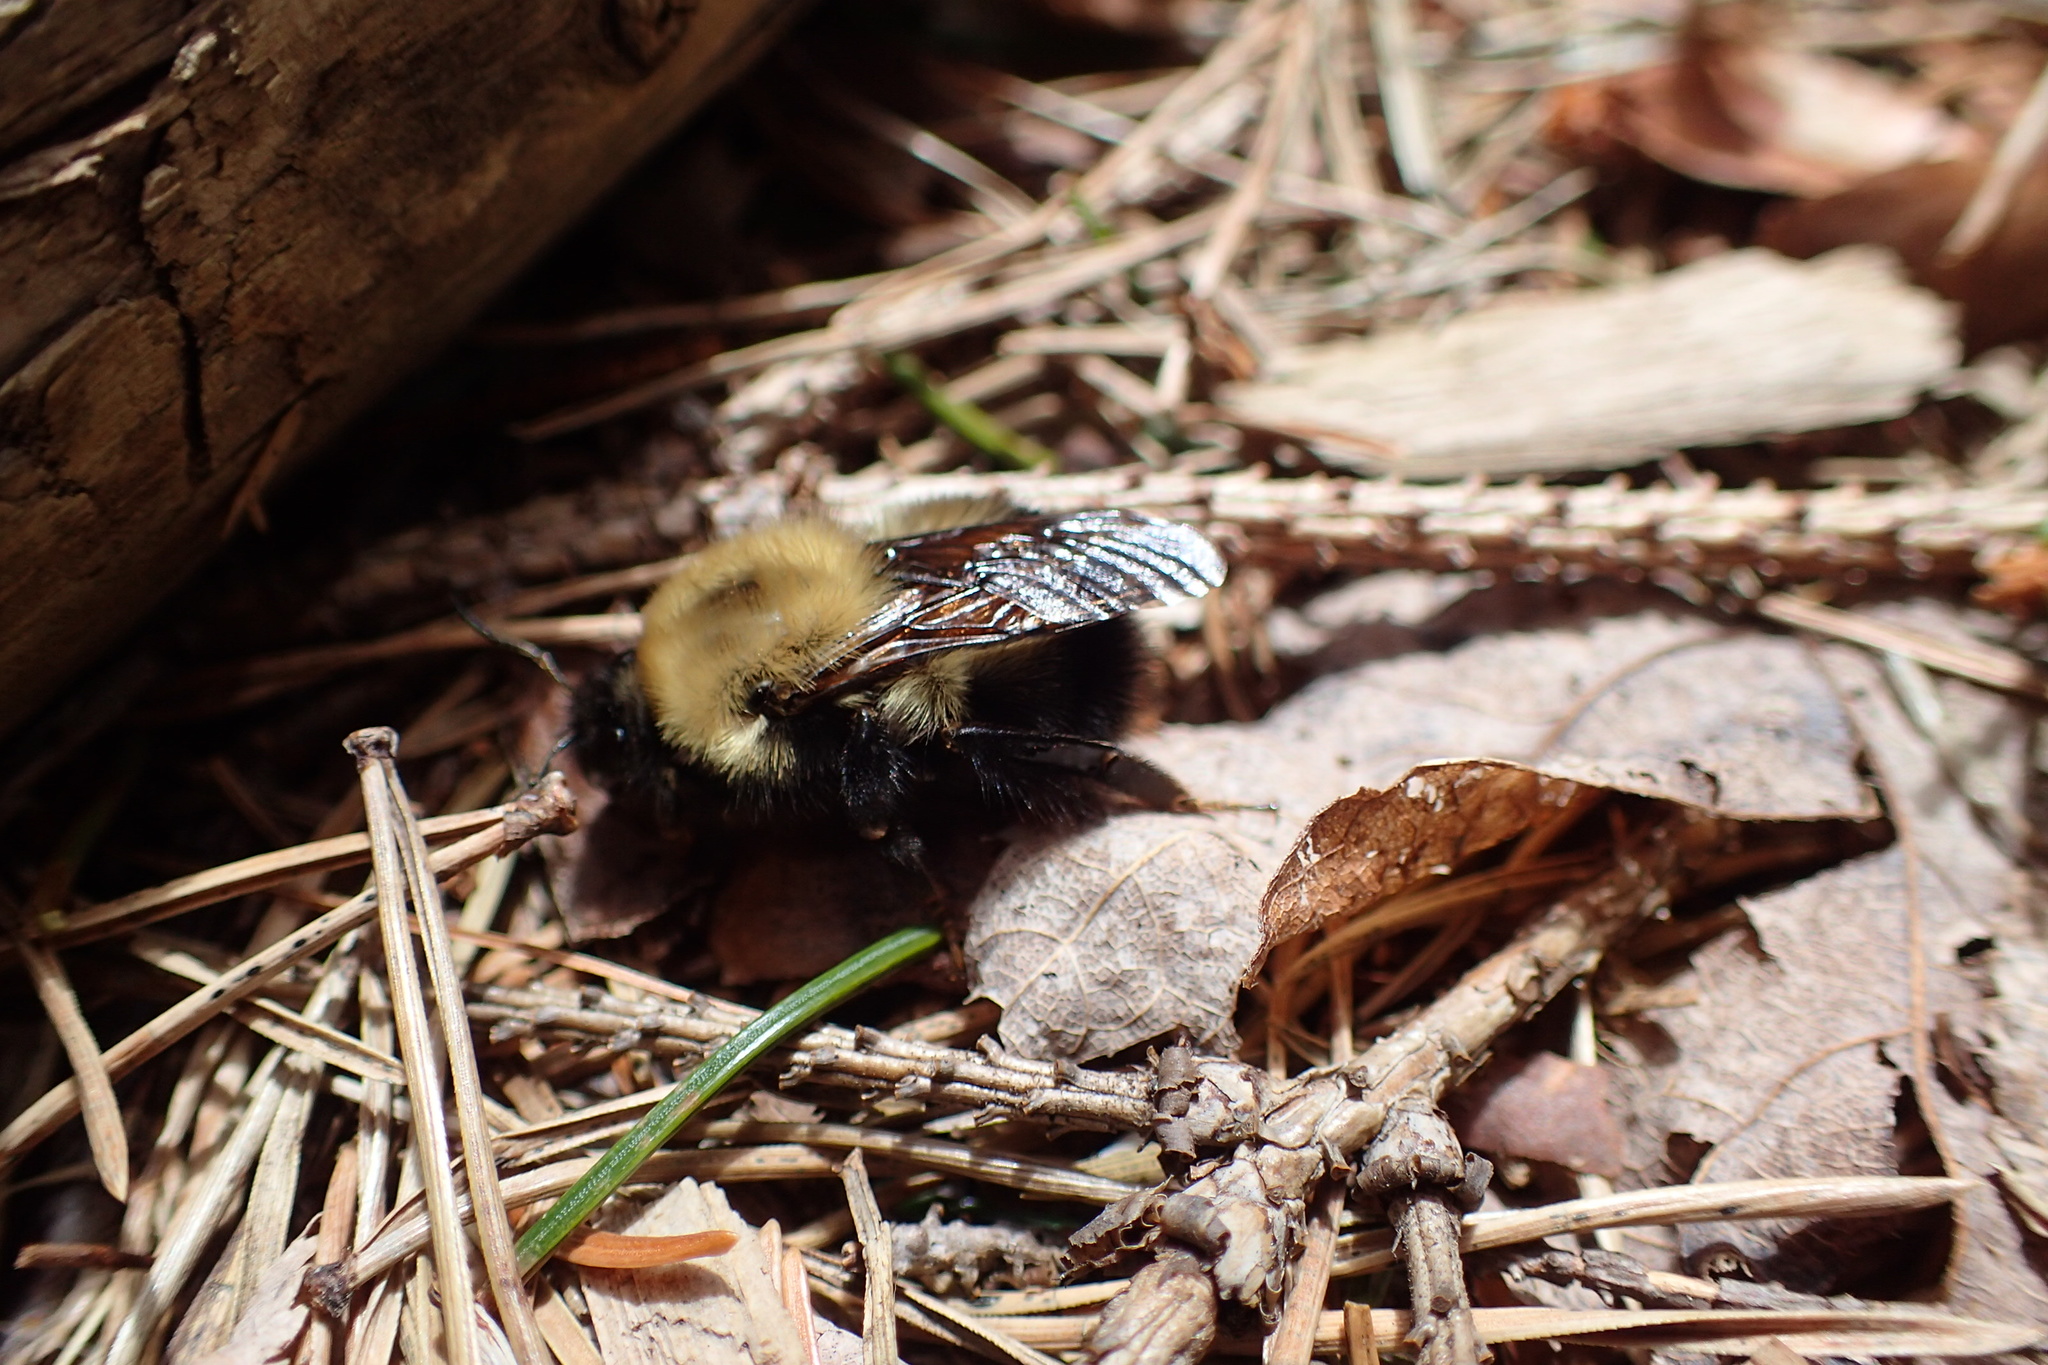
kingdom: Animalia
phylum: Arthropoda
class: Insecta
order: Hymenoptera
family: Apidae
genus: Bombus
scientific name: Bombus perplexus
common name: Confusing bumble bee
